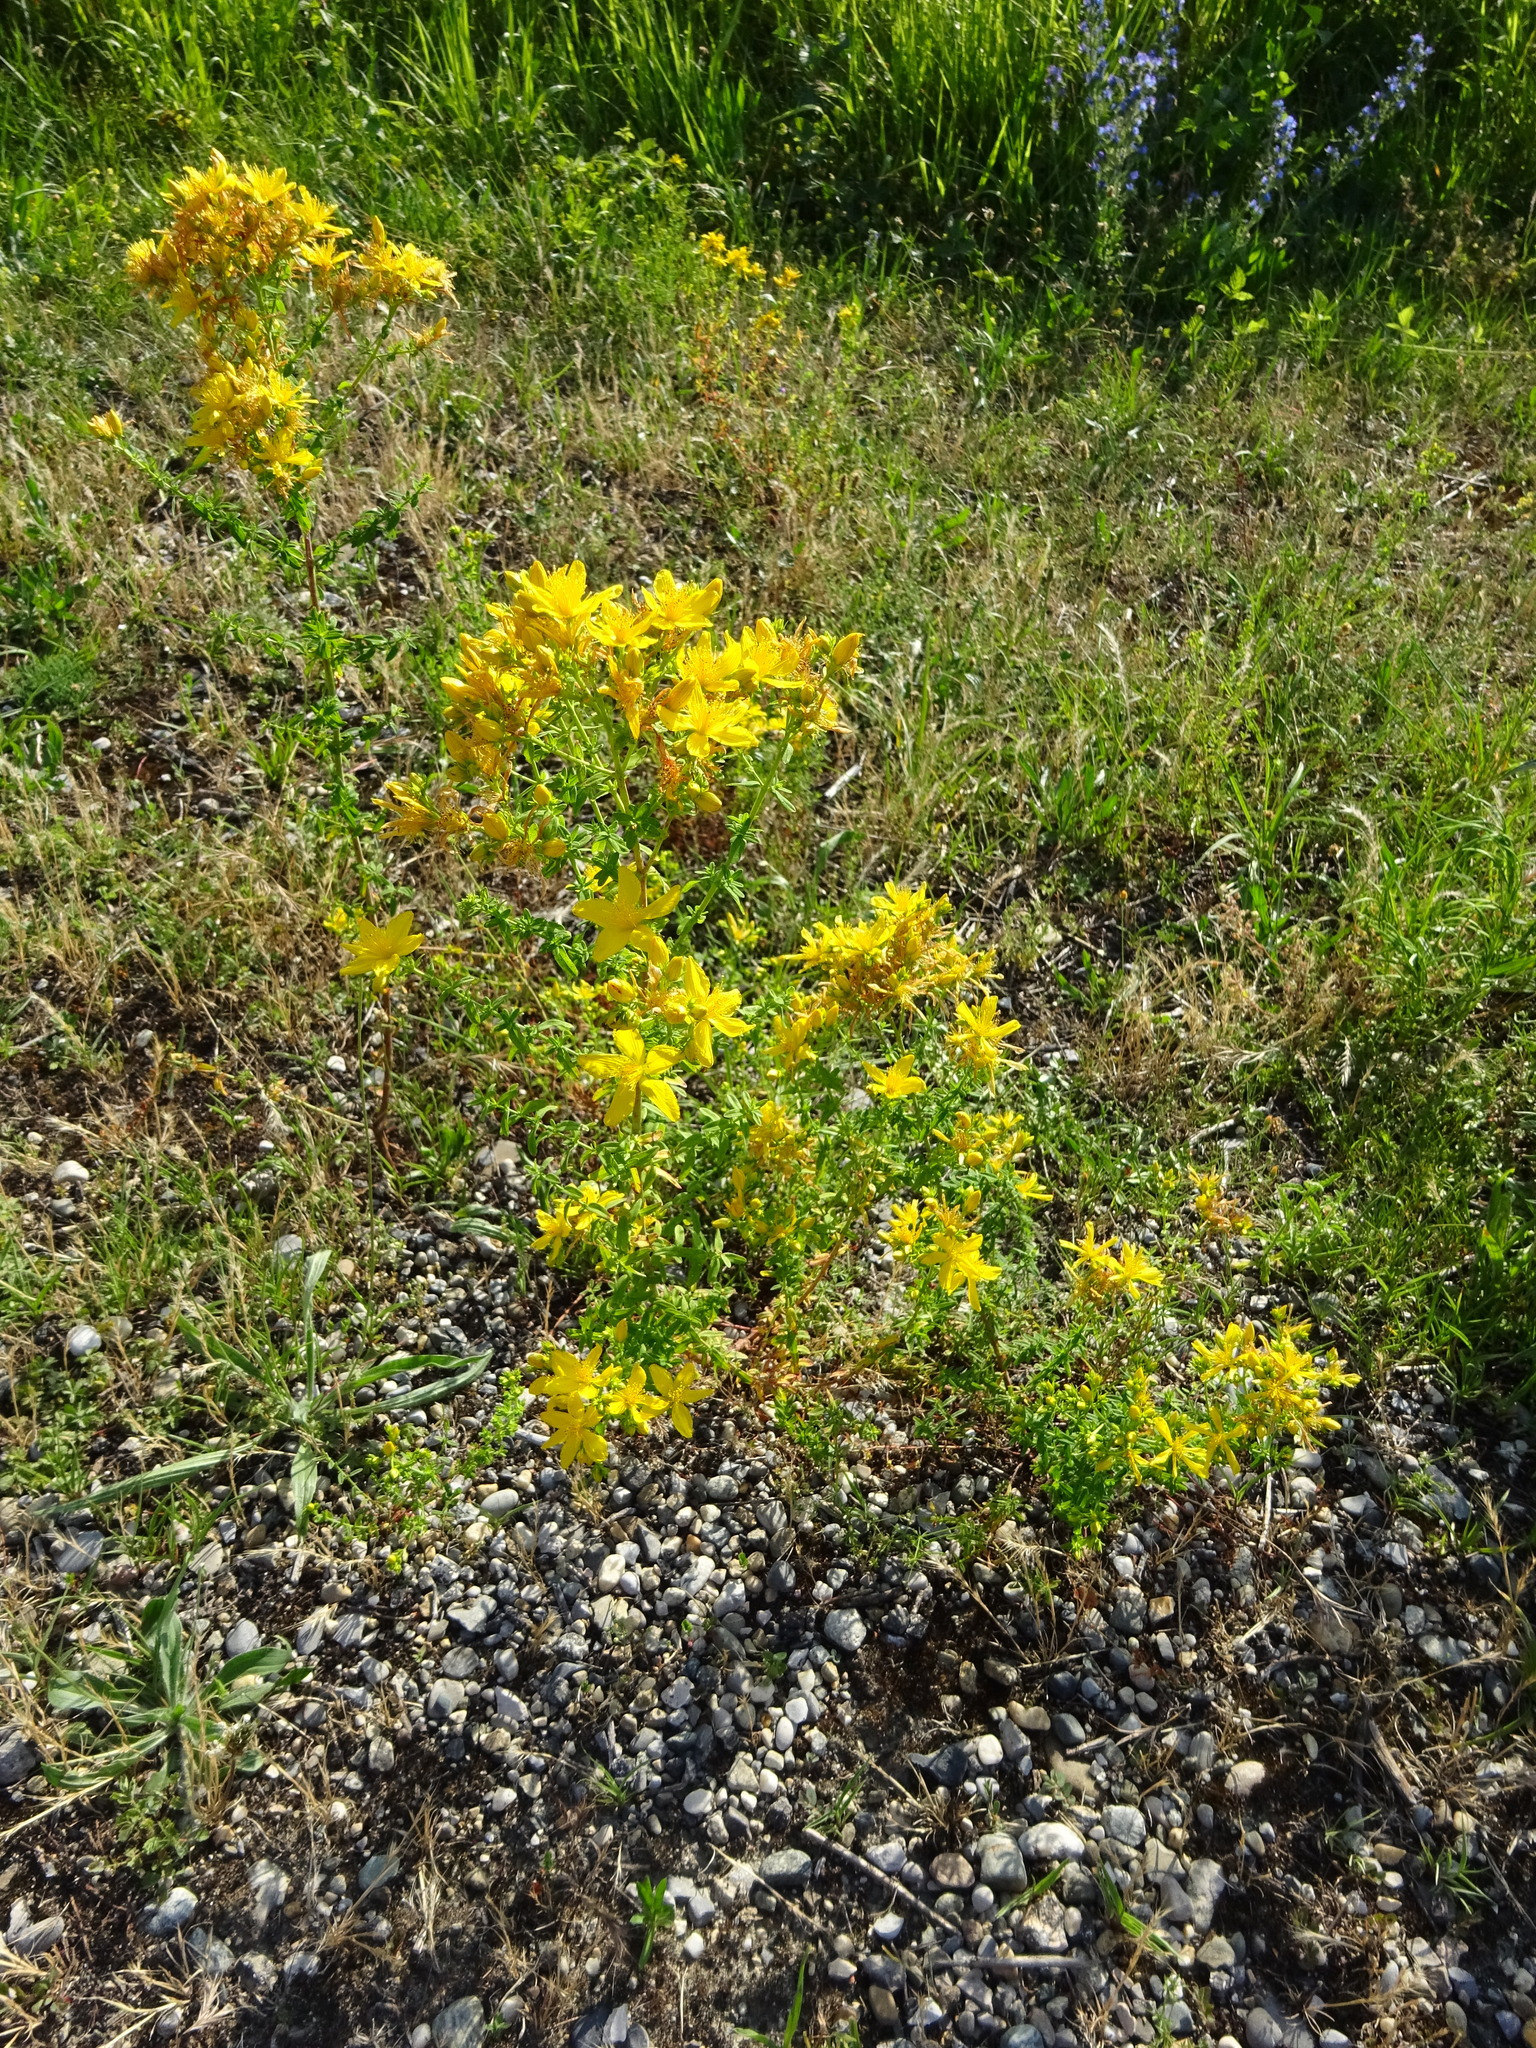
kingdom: Plantae
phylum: Tracheophyta
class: Magnoliopsida
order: Malpighiales
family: Hypericaceae
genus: Hypericum
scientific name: Hypericum perforatum
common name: Common st. johnswort
